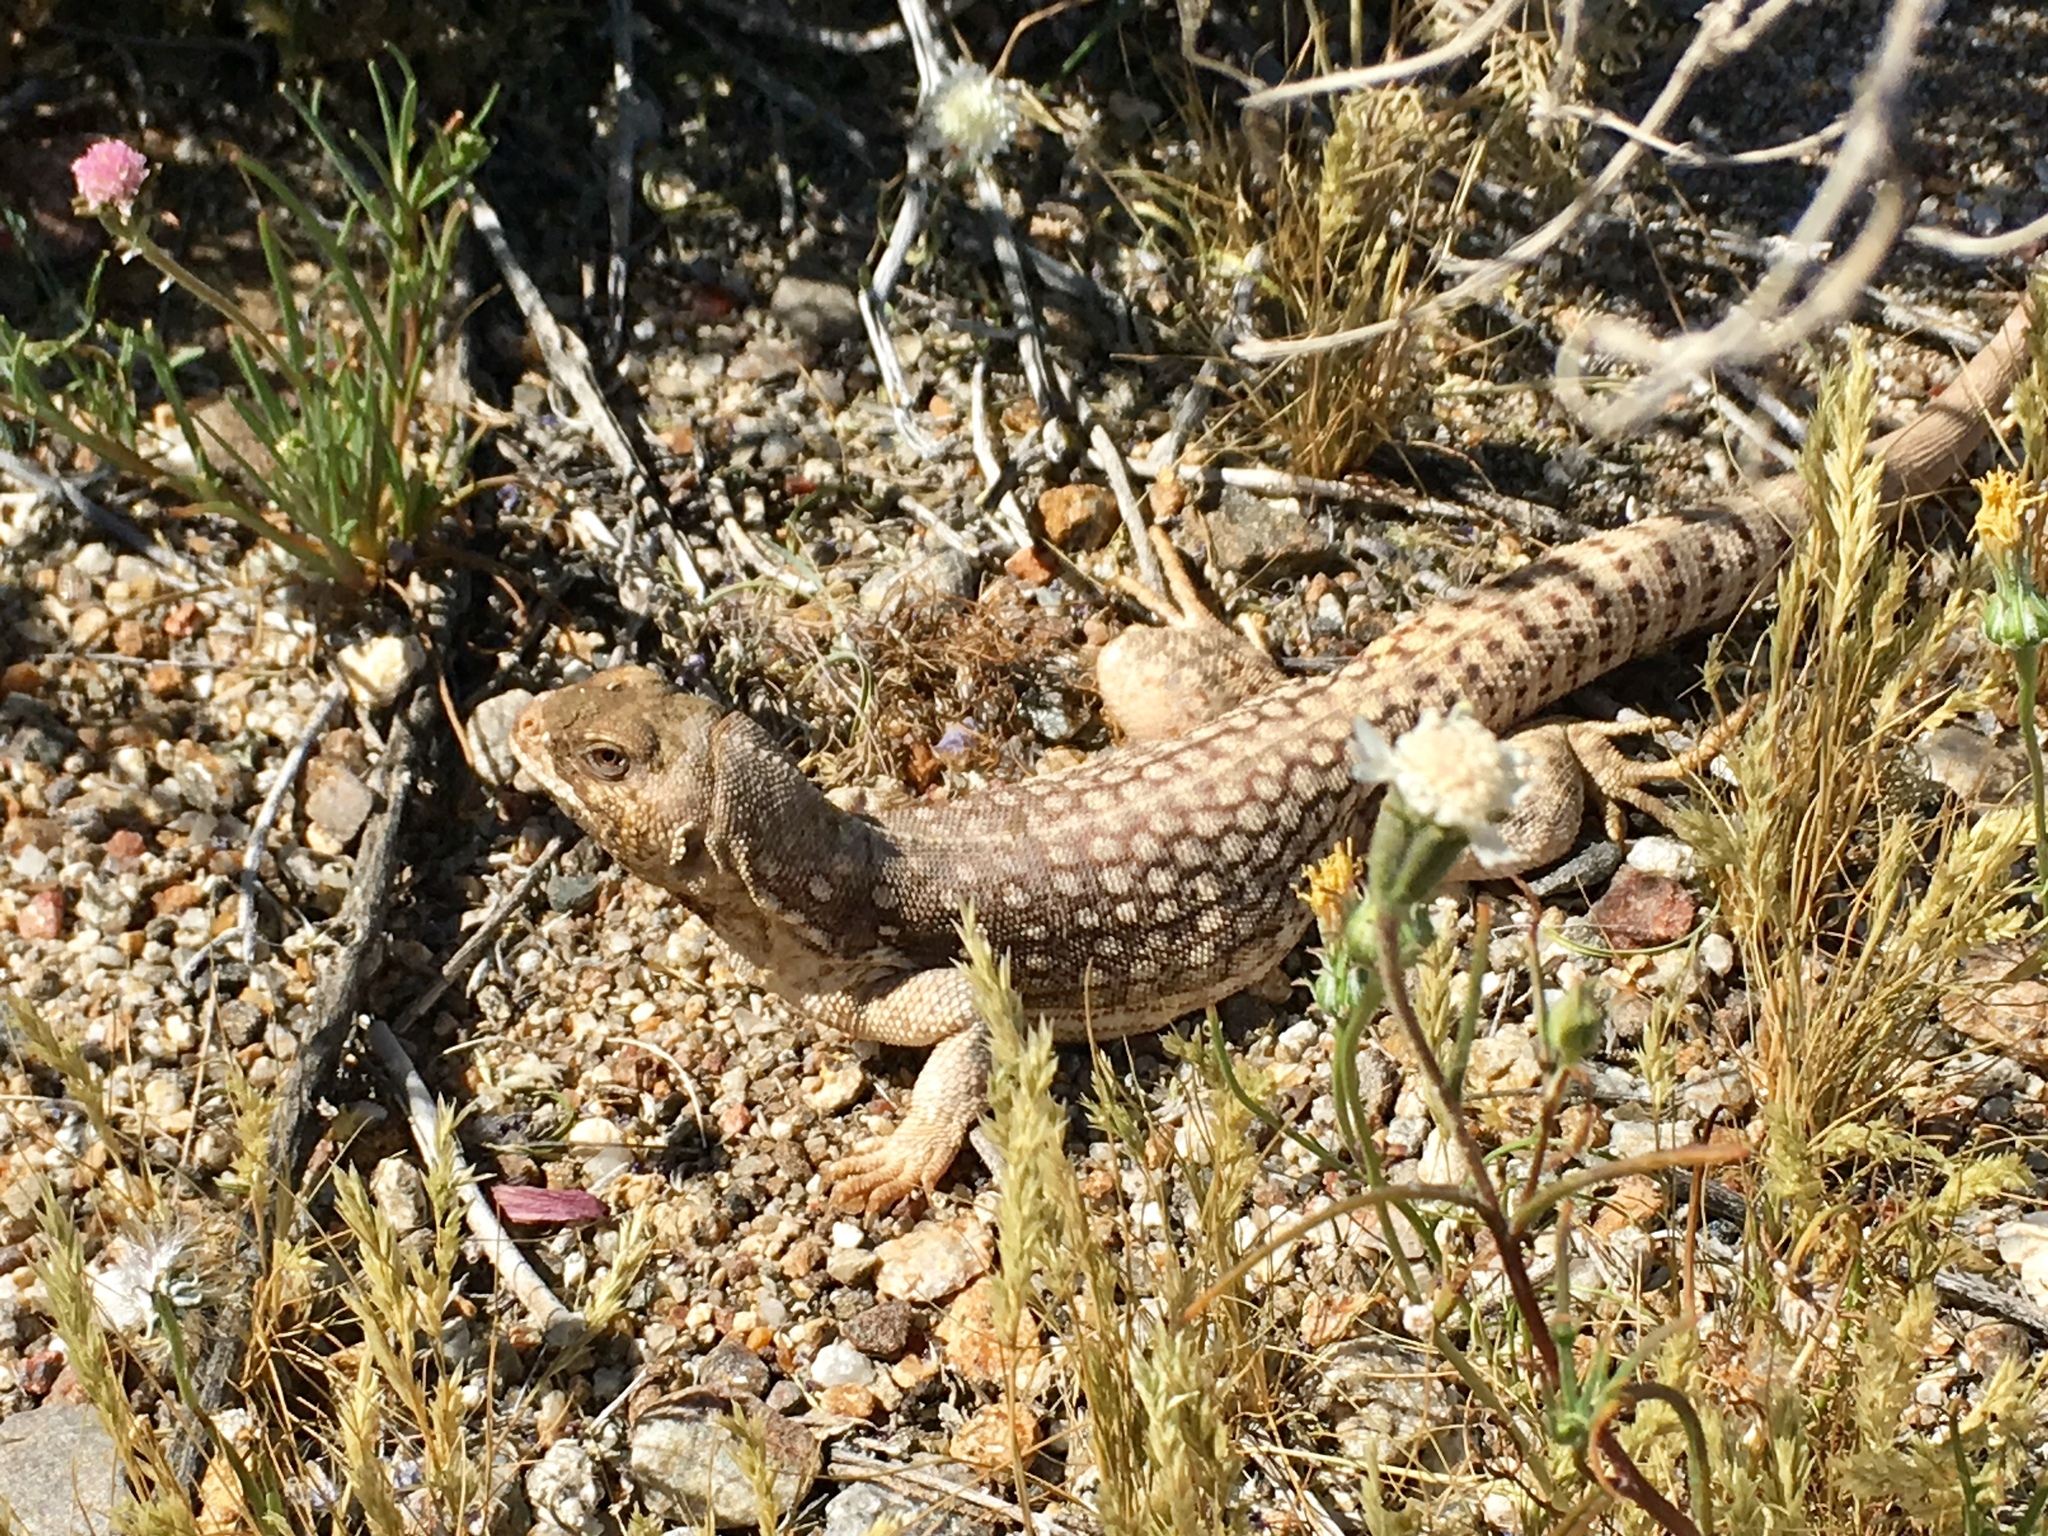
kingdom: Animalia
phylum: Chordata
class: Squamata
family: Iguanidae
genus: Dipsosaurus
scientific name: Dipsosaurus dorsalis
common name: Desert iguana
